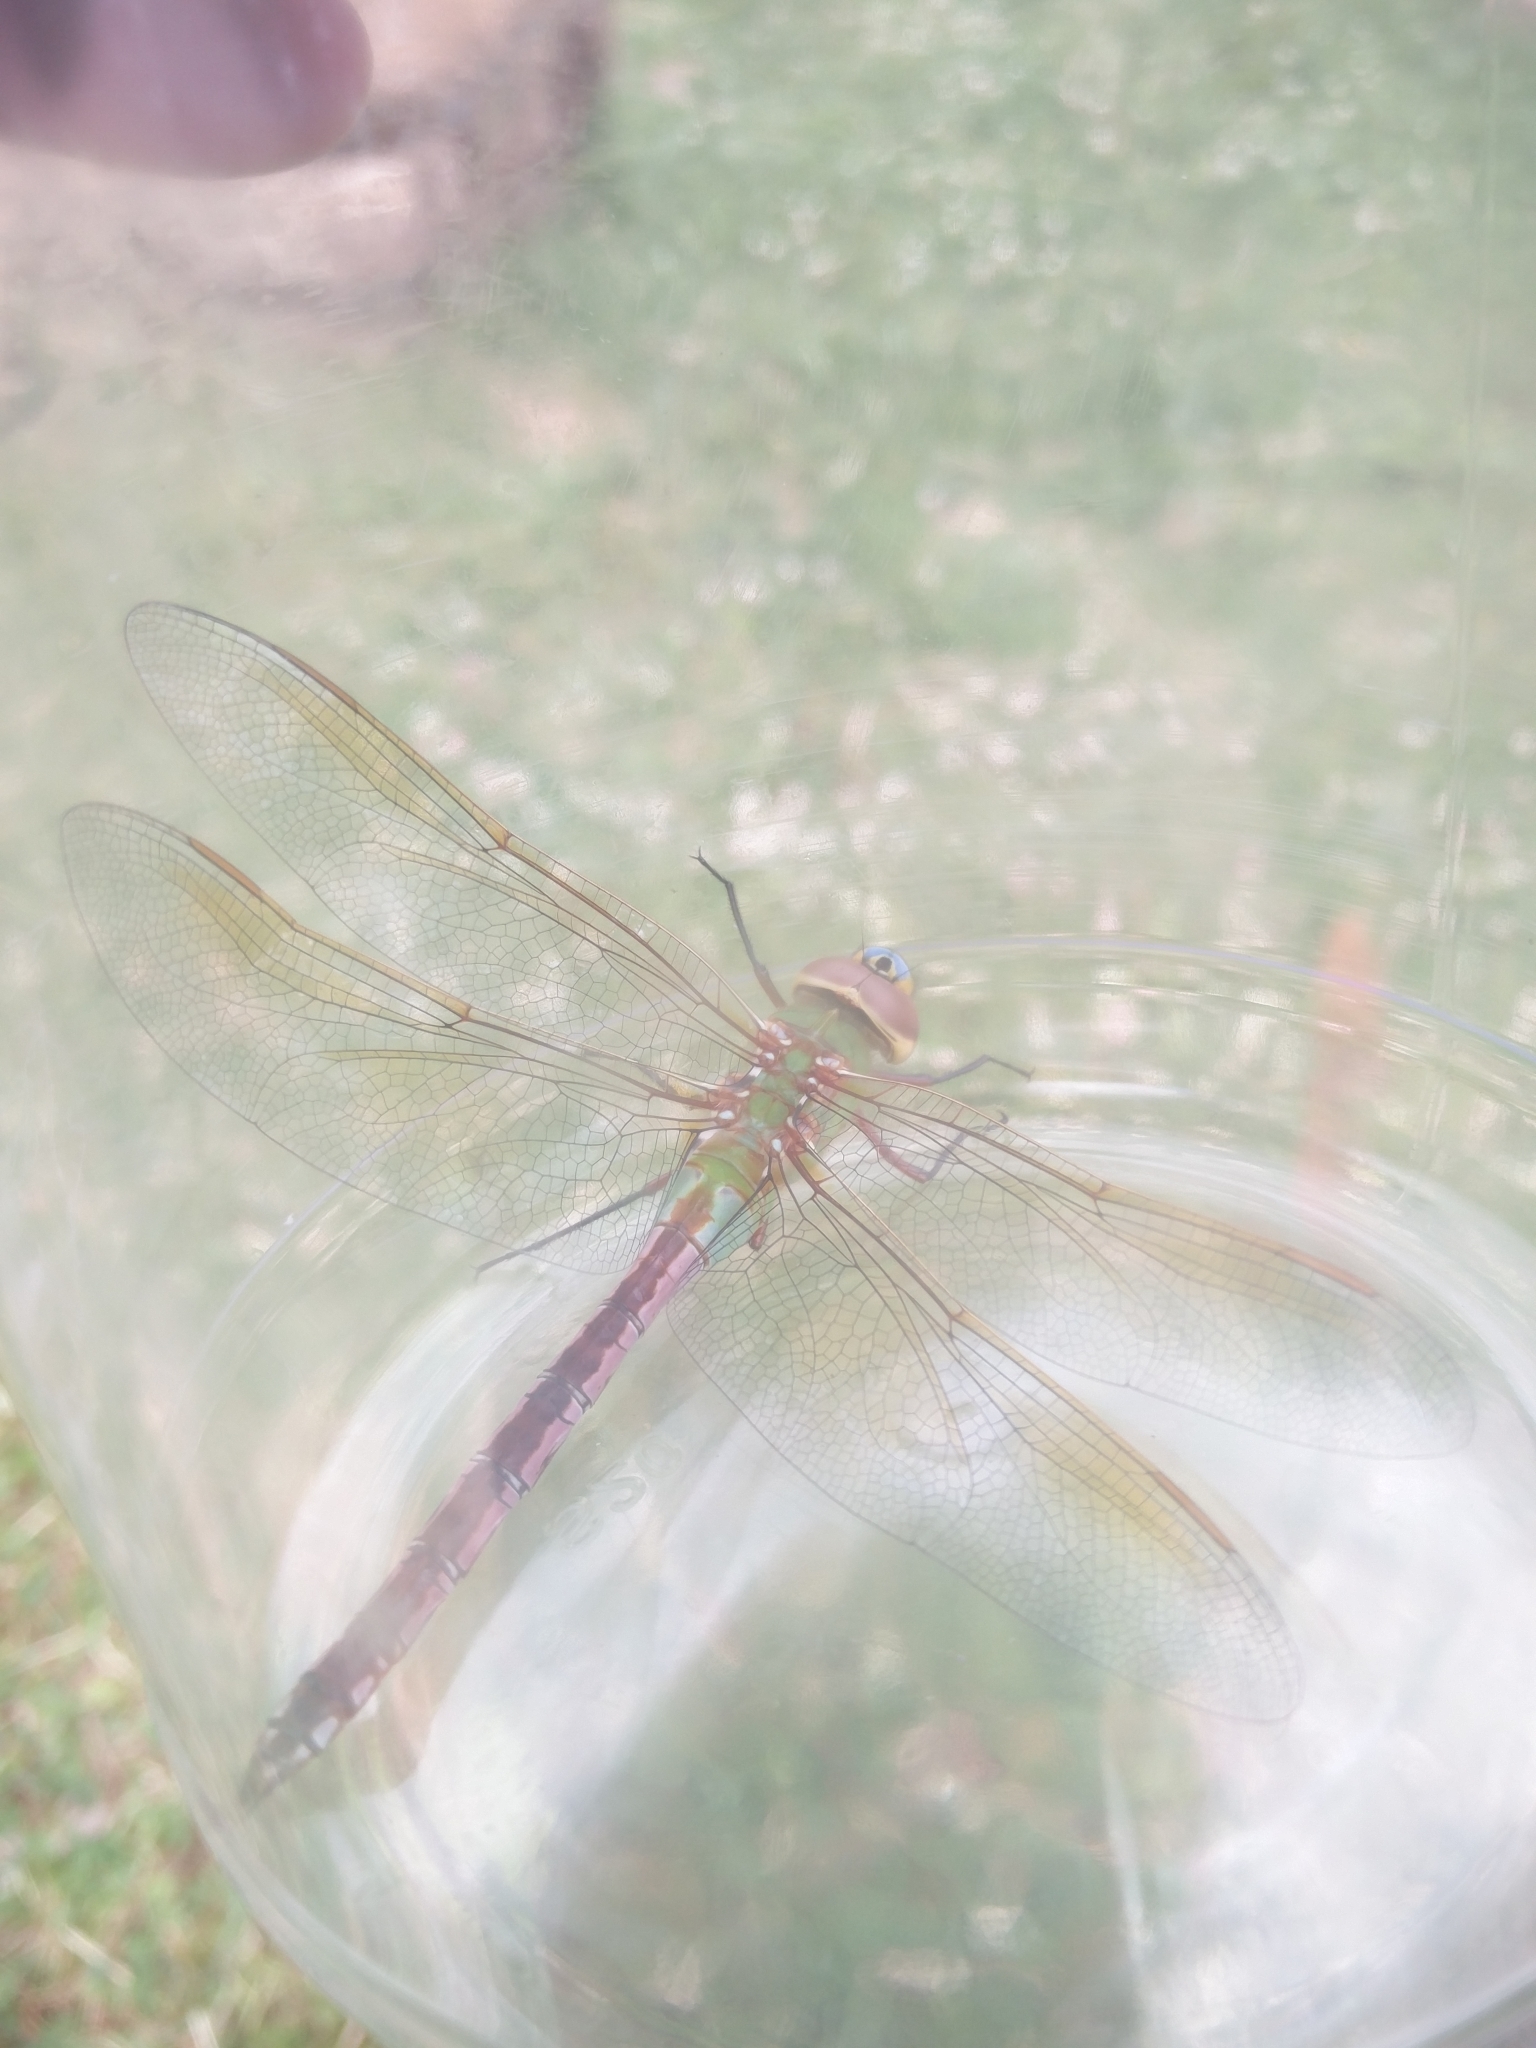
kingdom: Animalia
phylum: Arthropoda
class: Insecta
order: Odonata
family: Aeshnidae
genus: Anax
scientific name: Anax junius
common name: Common green darner
